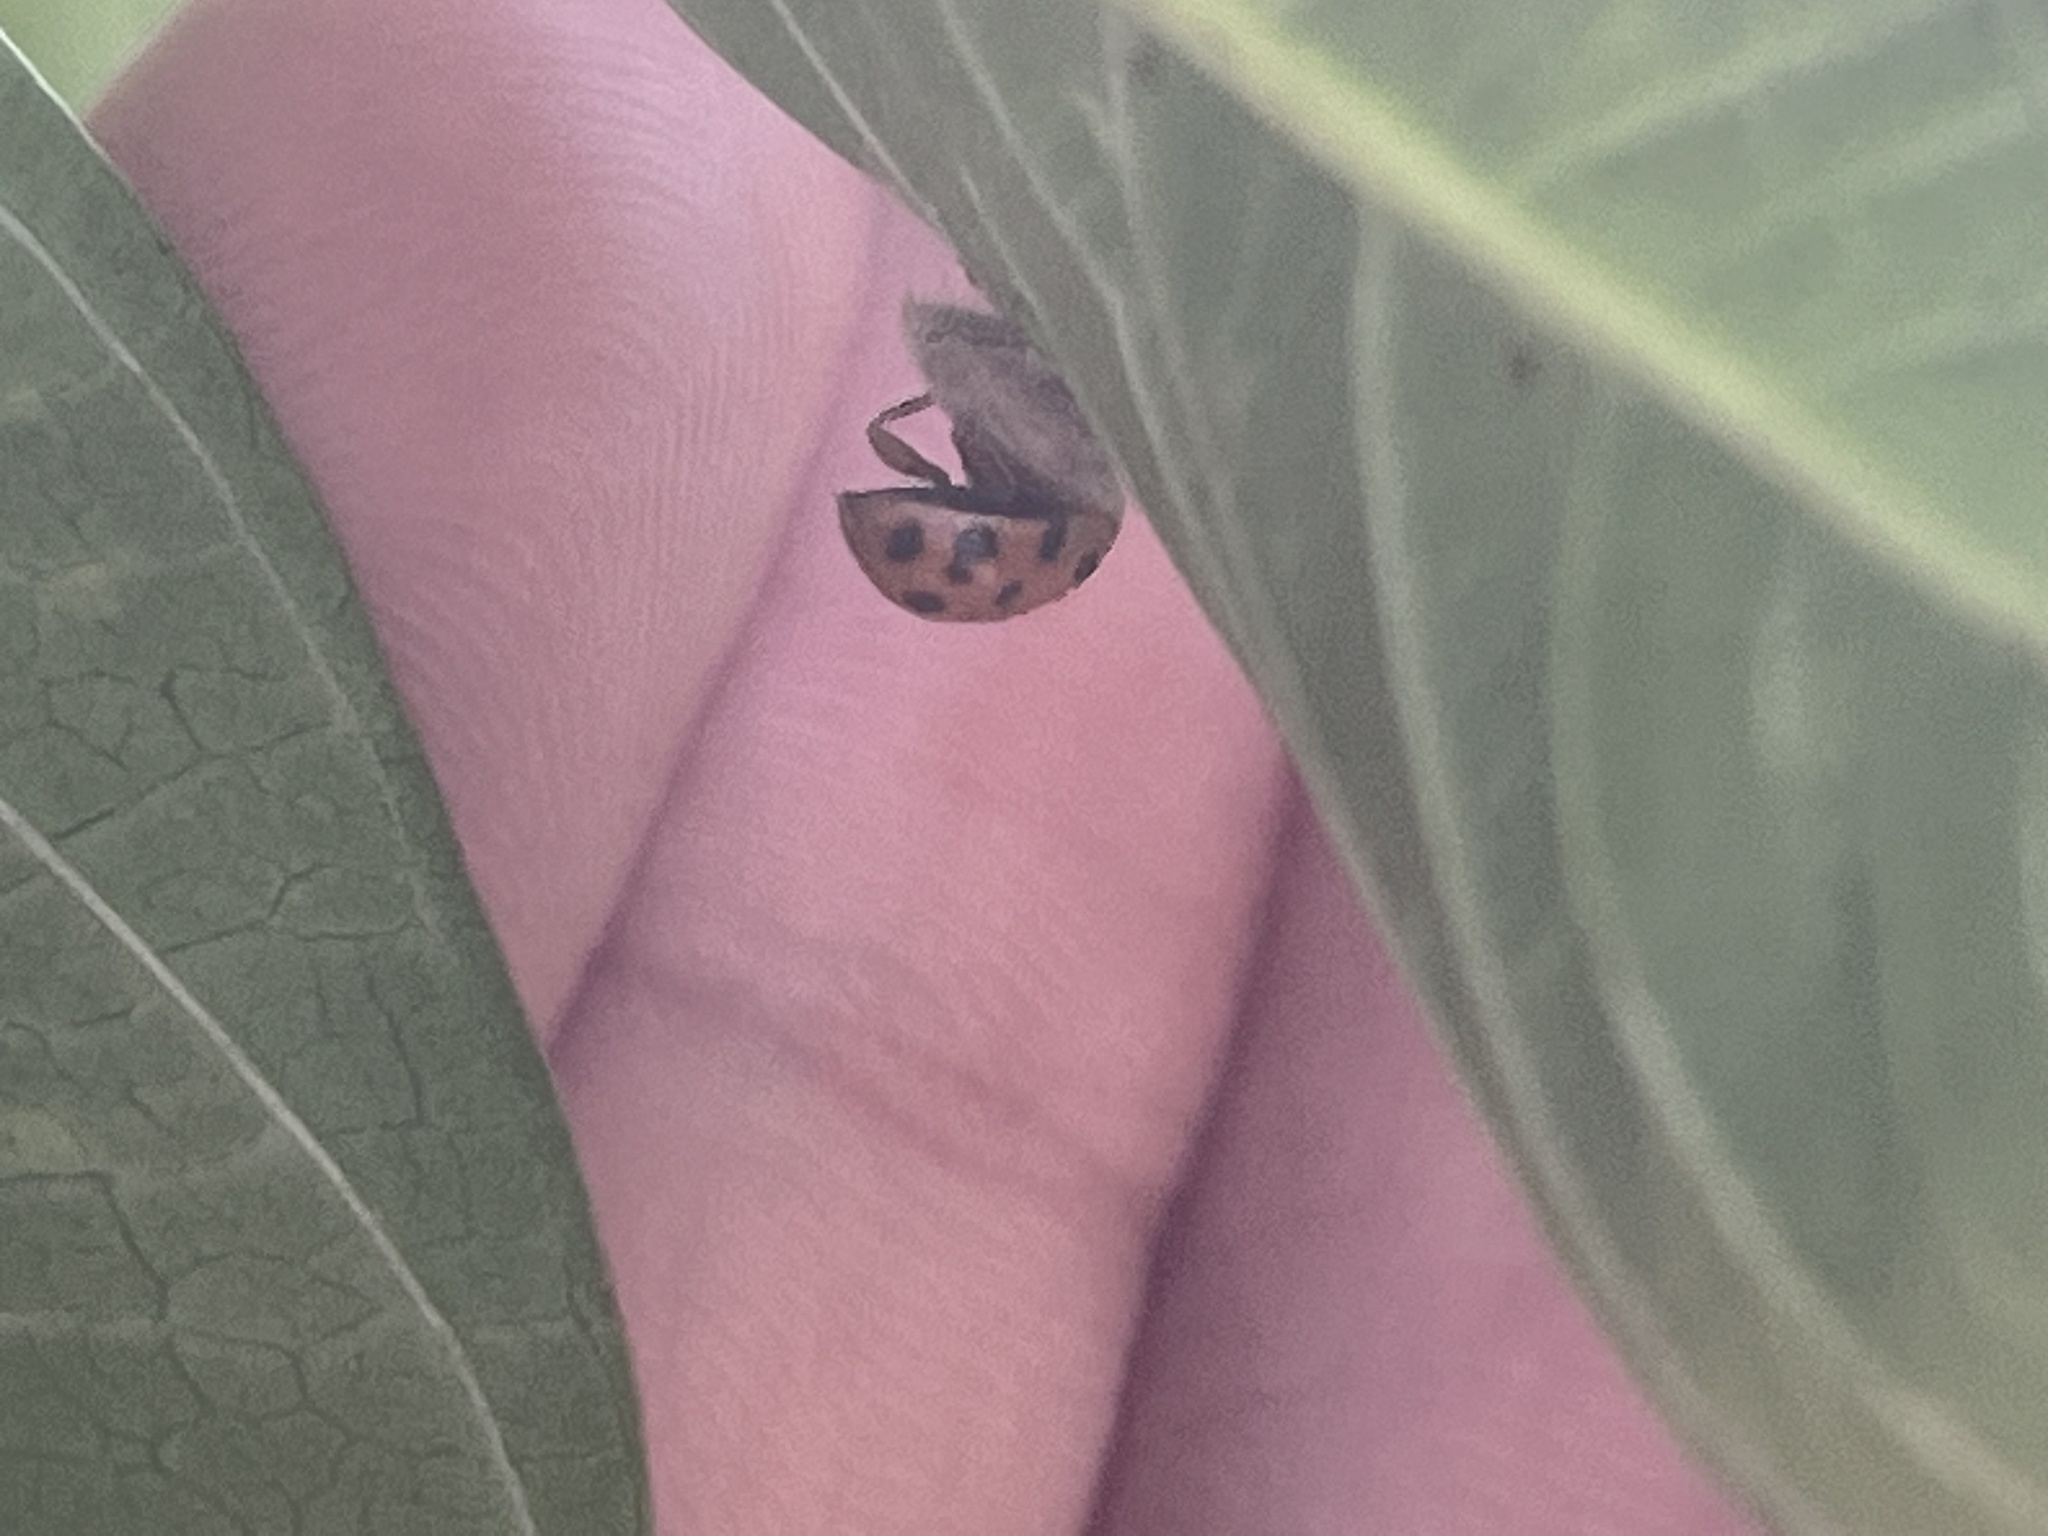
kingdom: Animalia
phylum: Arthropoda
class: Insecta
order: Hymenoptera
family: Braconidae
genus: Dinocampus
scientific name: Dinocampus coccinellae
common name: Braconid wasp
